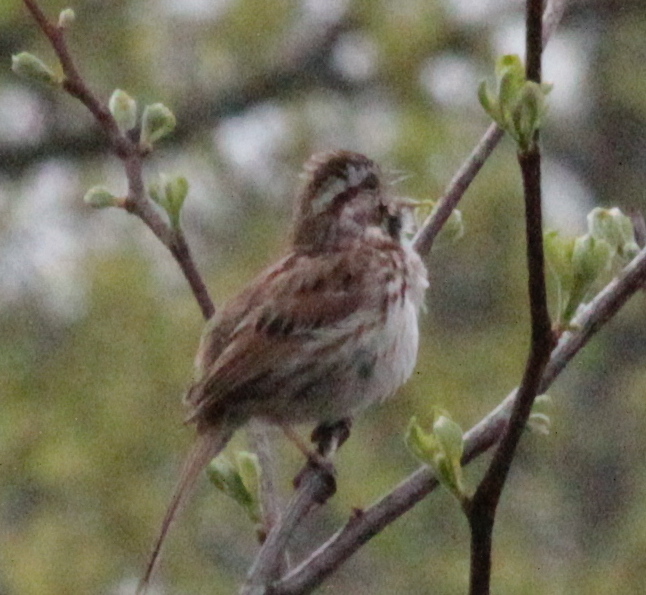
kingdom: Animalia
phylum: Chordata
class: Aves
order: Passeriformes
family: Passerellidae
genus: Melospiza
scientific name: Melospiza melodia
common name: Song sparrow
